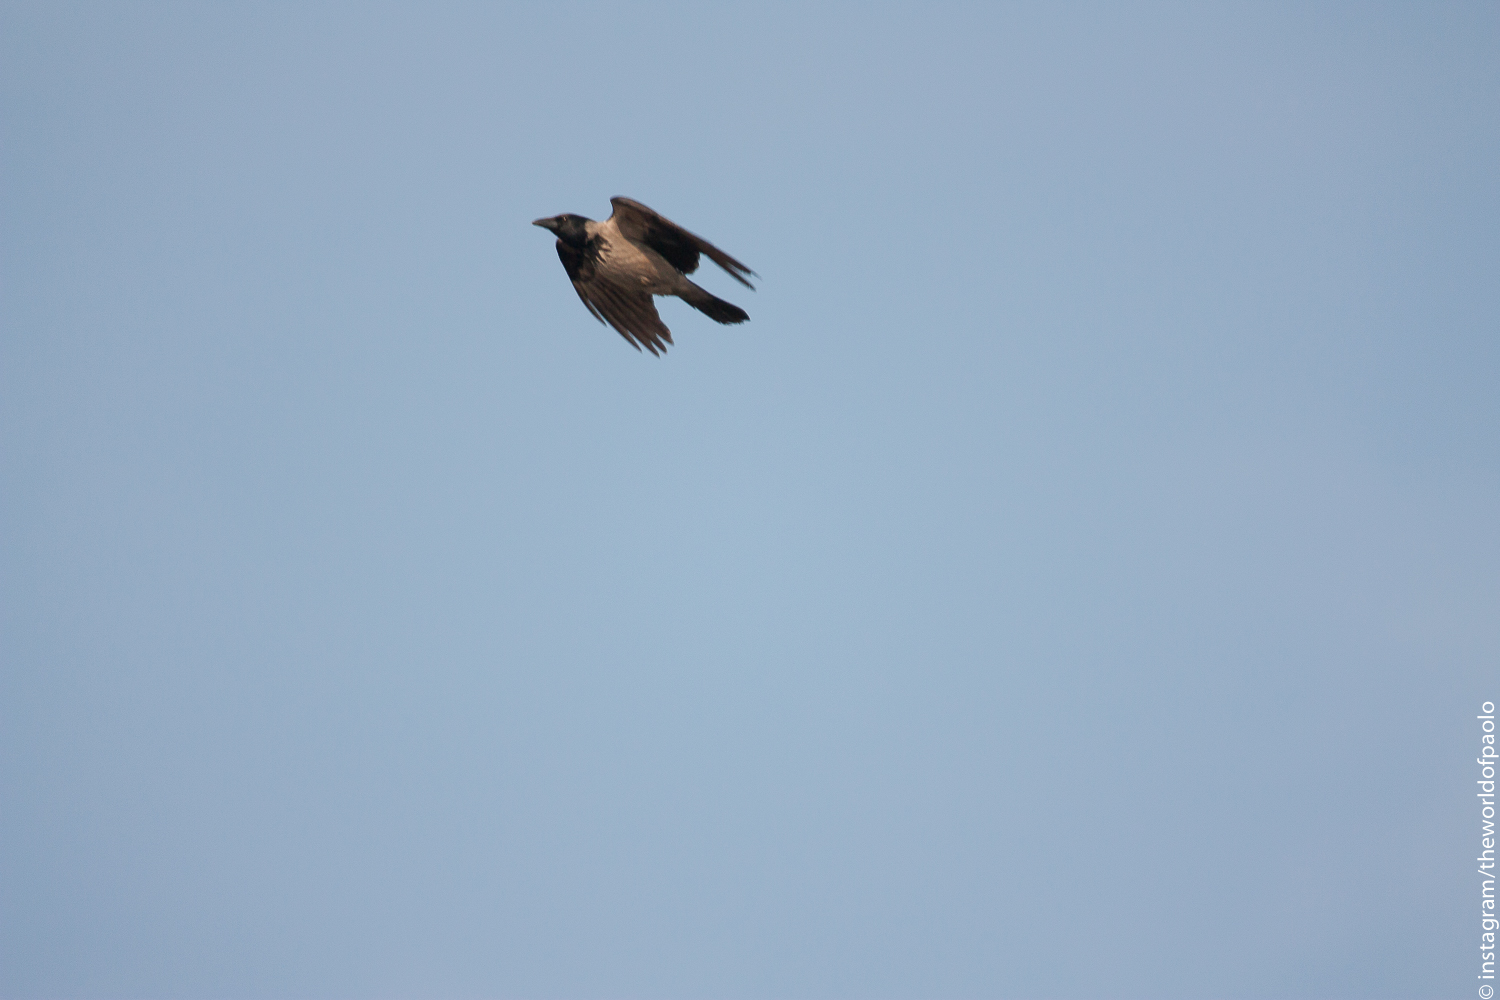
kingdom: Animalia
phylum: Chordata
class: Aves
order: Passeriformes
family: Corvidae
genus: Corvus
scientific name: Corvus cornix
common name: Hooded crow
